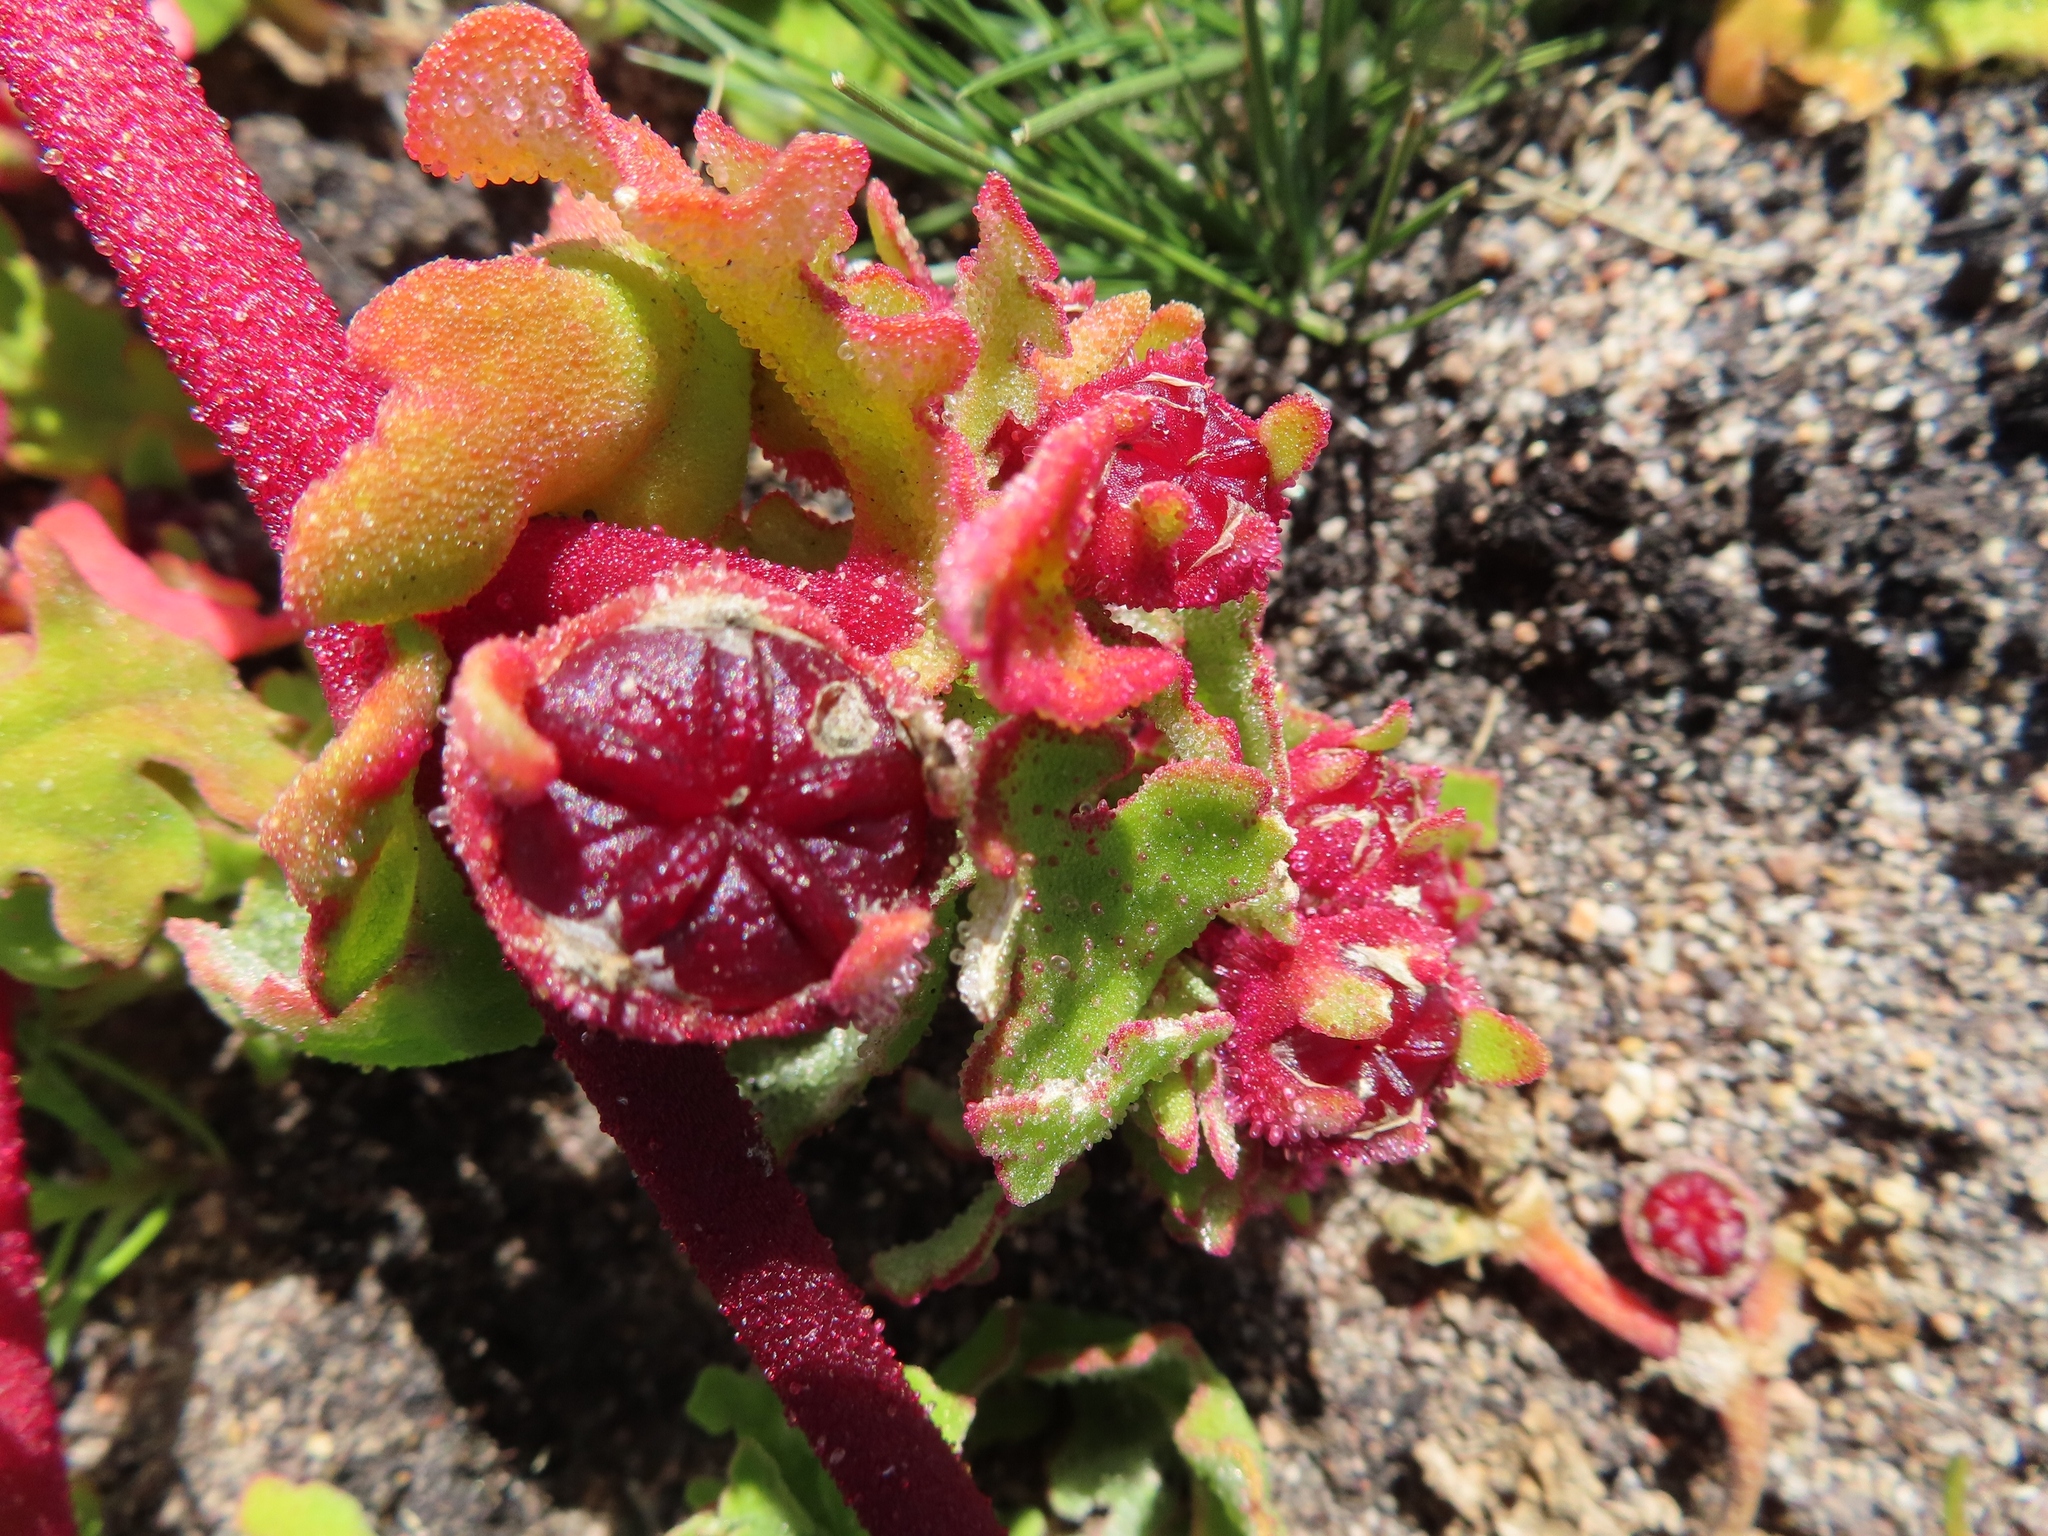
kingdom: Plantae
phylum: Tracheophyta
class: Magnoliopsida
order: Caryophyllales
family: Aizoaceae
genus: Cleretum
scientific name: Cleretum herrei
